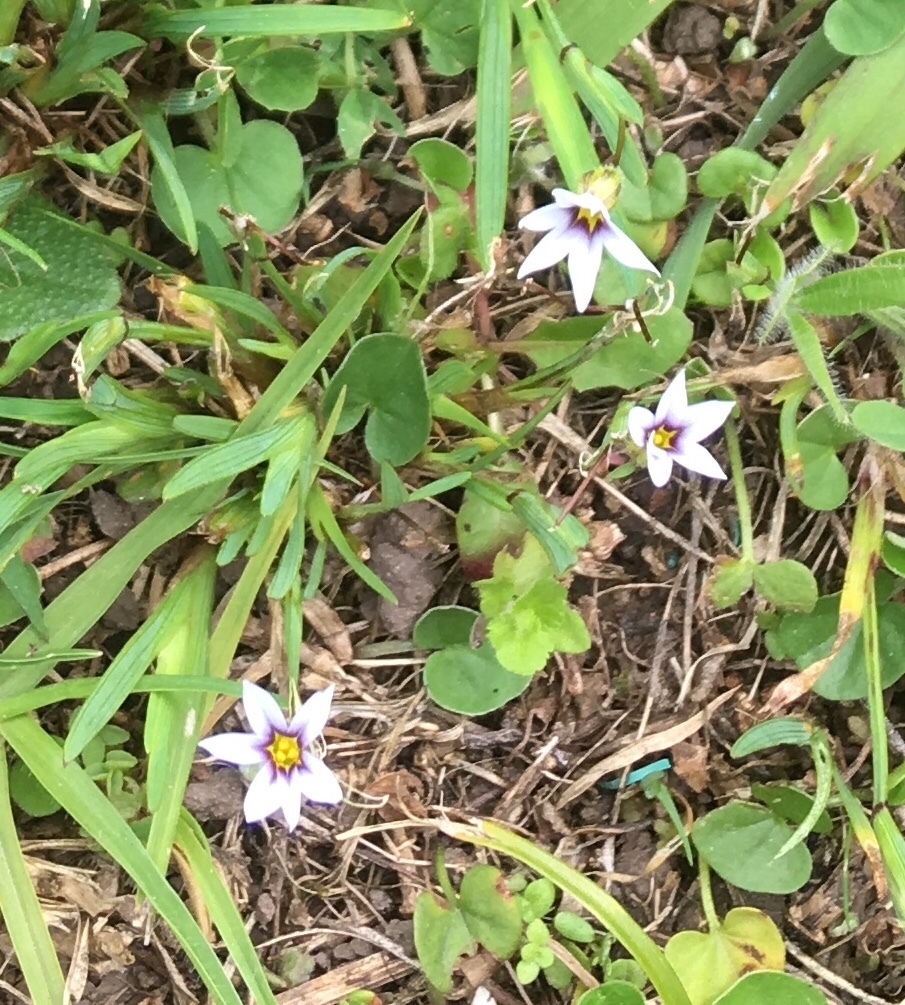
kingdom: Plantae
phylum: Tracheophyta
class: Liliopsida
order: Asparagales
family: Iridaceae
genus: Sisyrinchium
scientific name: Sisyrinchium micranthum
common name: Bermuda pigroot
